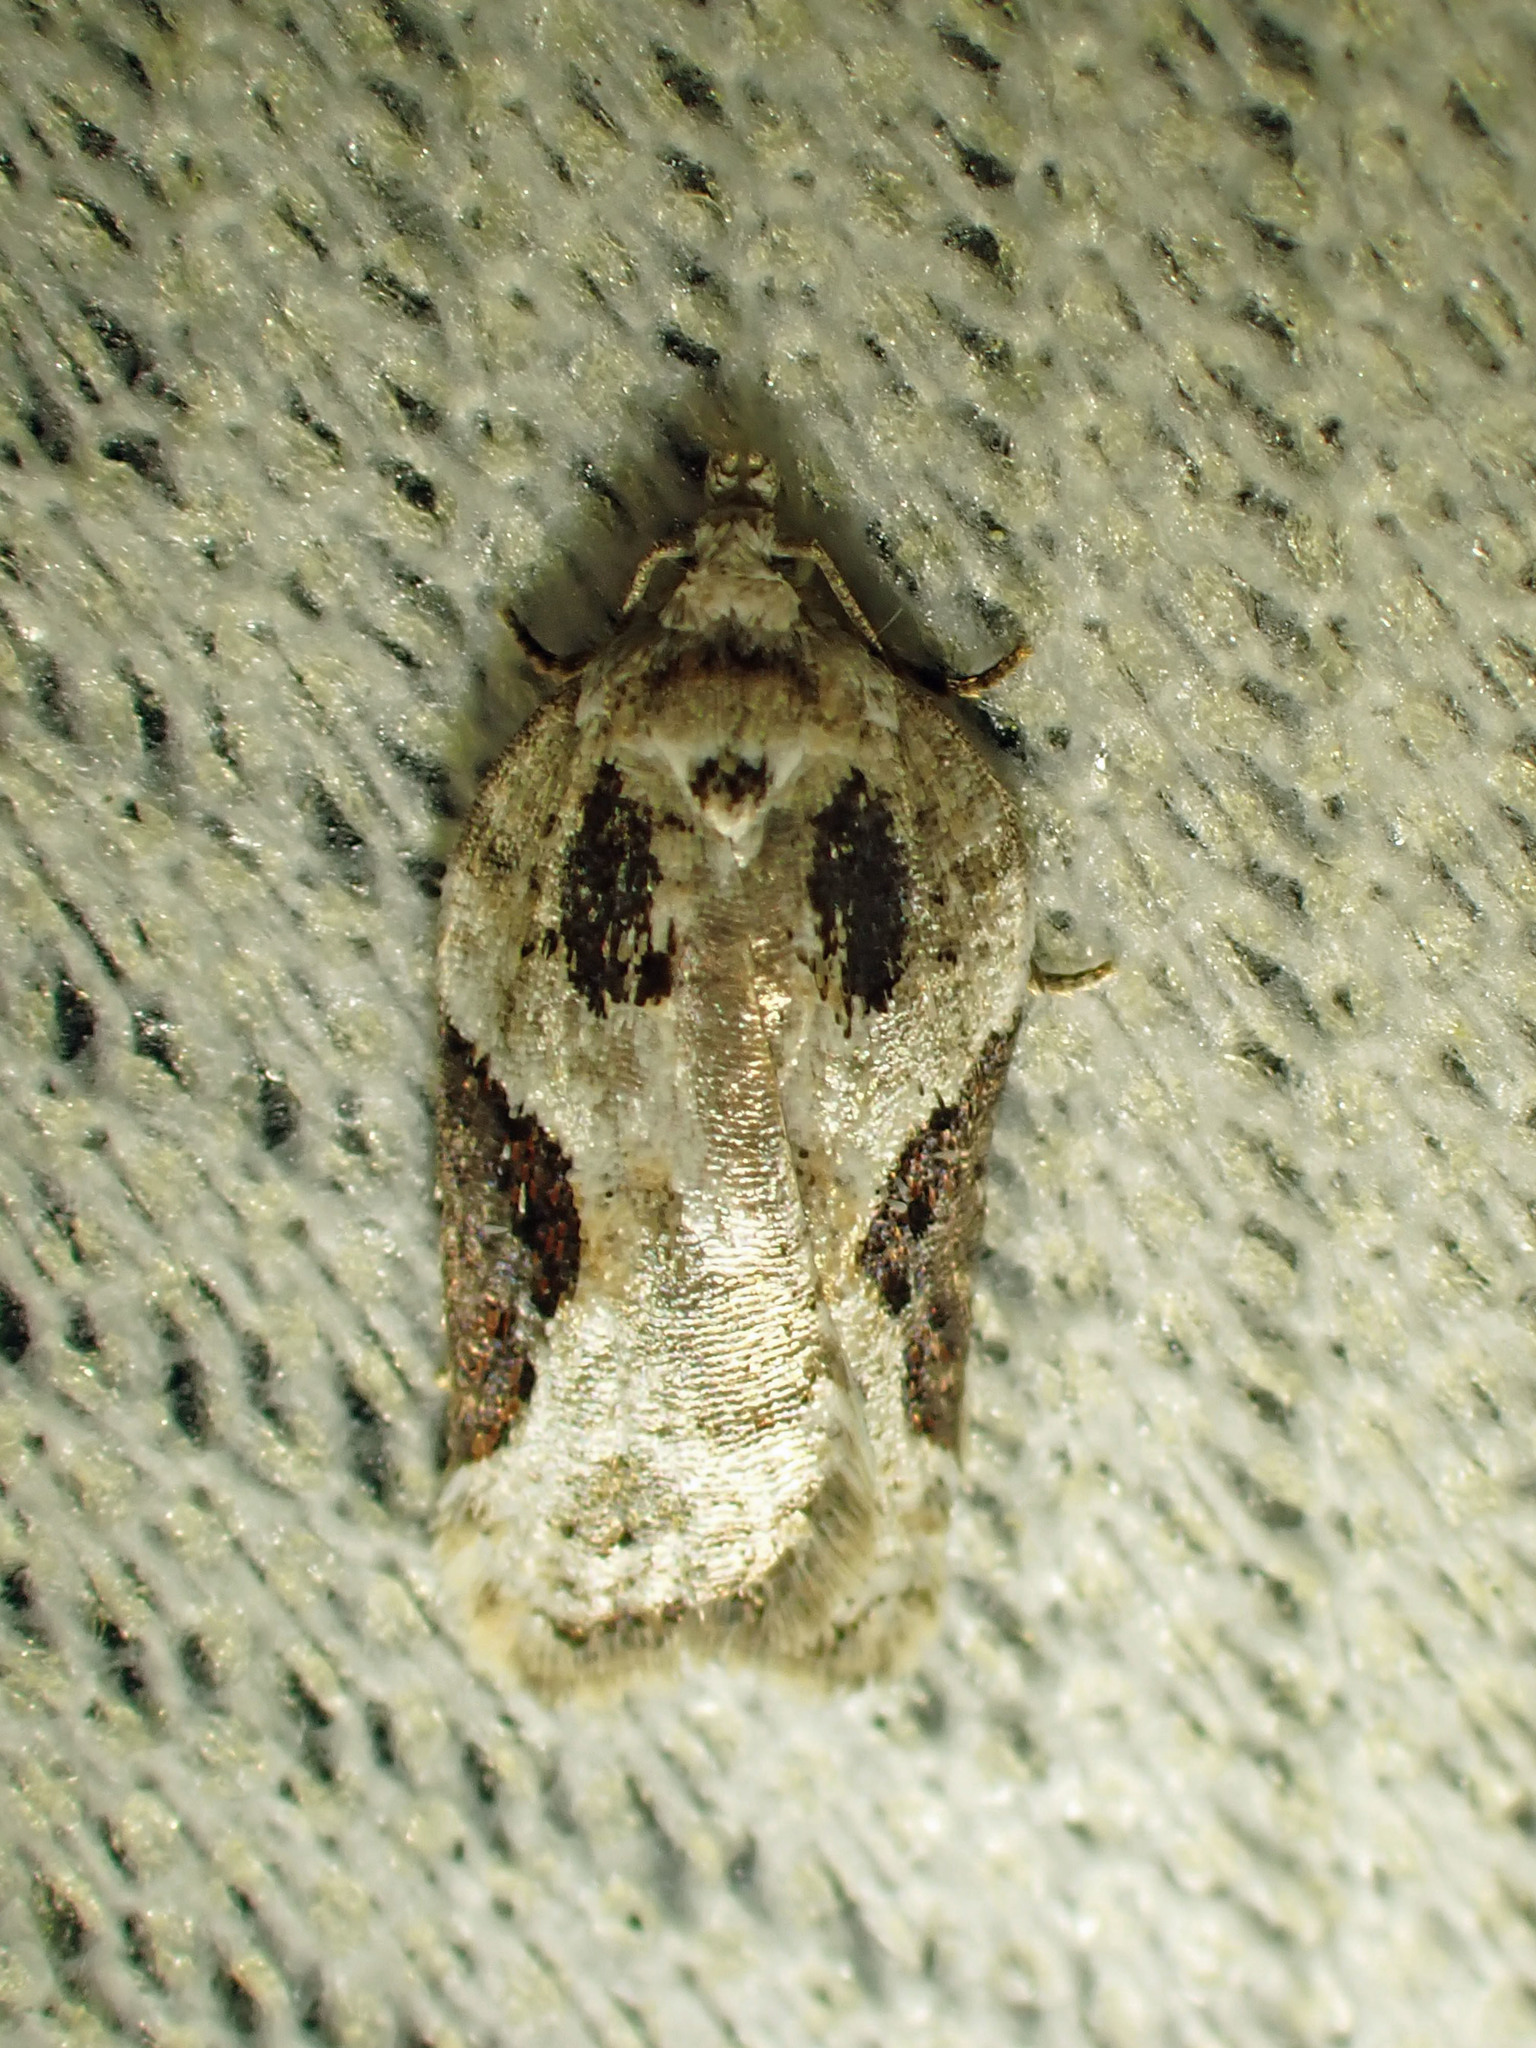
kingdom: Animalia
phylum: Arthropoda
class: Insecta
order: Lepidoptera
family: Tortricidae
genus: Acleris
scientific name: Acleris forbesana
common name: Forbes' acleris moth
